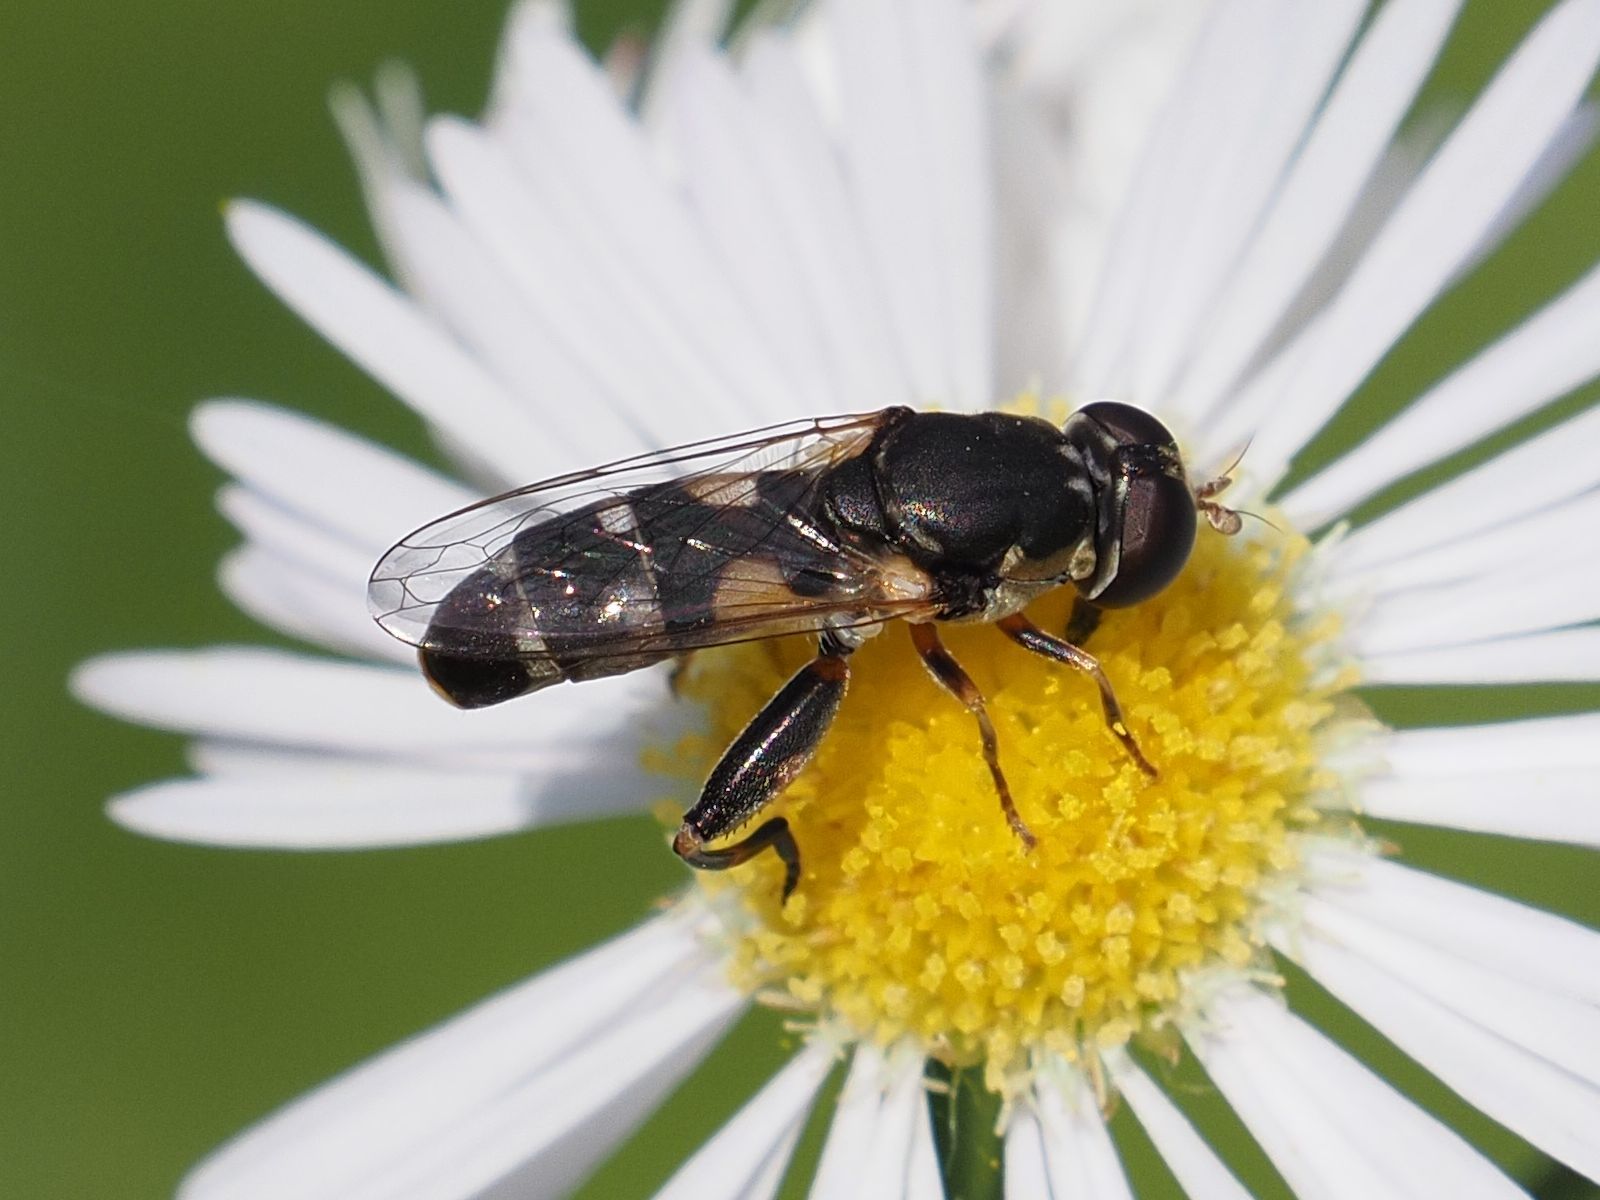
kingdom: Animalia
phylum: Arthropoda
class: Insecta
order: Diptera
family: Syrphidae
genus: Syritta
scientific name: Syritta pipiens
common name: Hover fly
